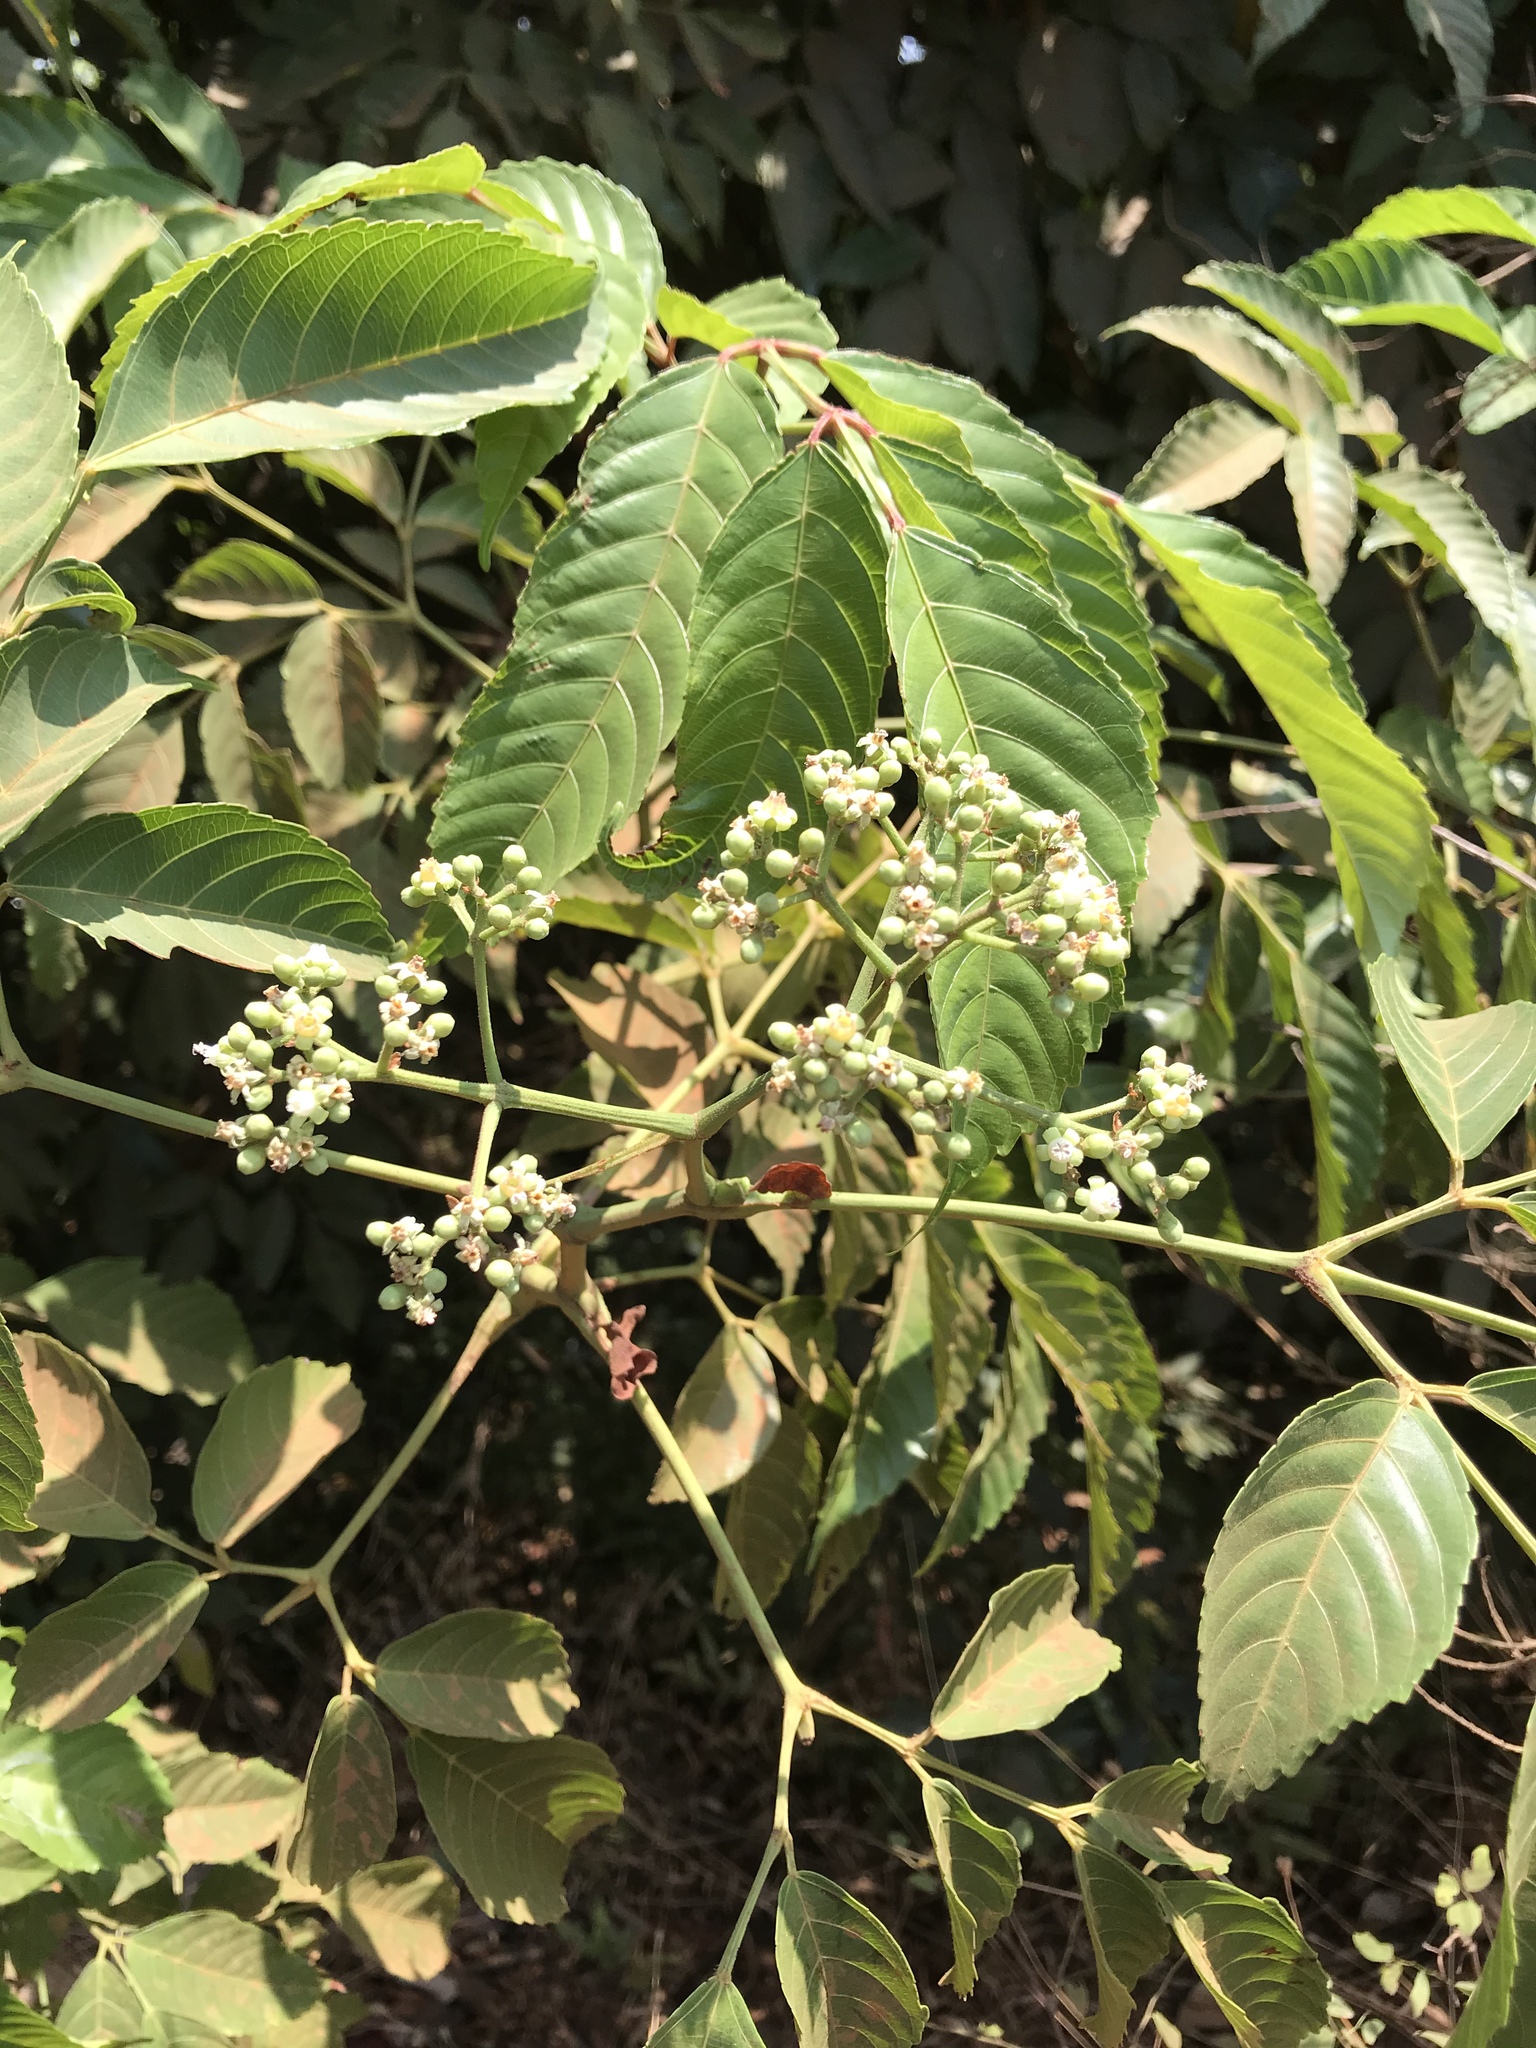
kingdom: Plantae
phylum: Tracheophyta
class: Magnoliopsida
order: Vitales
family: Vitaceae
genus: Leea
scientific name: Leea indica
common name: Bandicoot-berry
